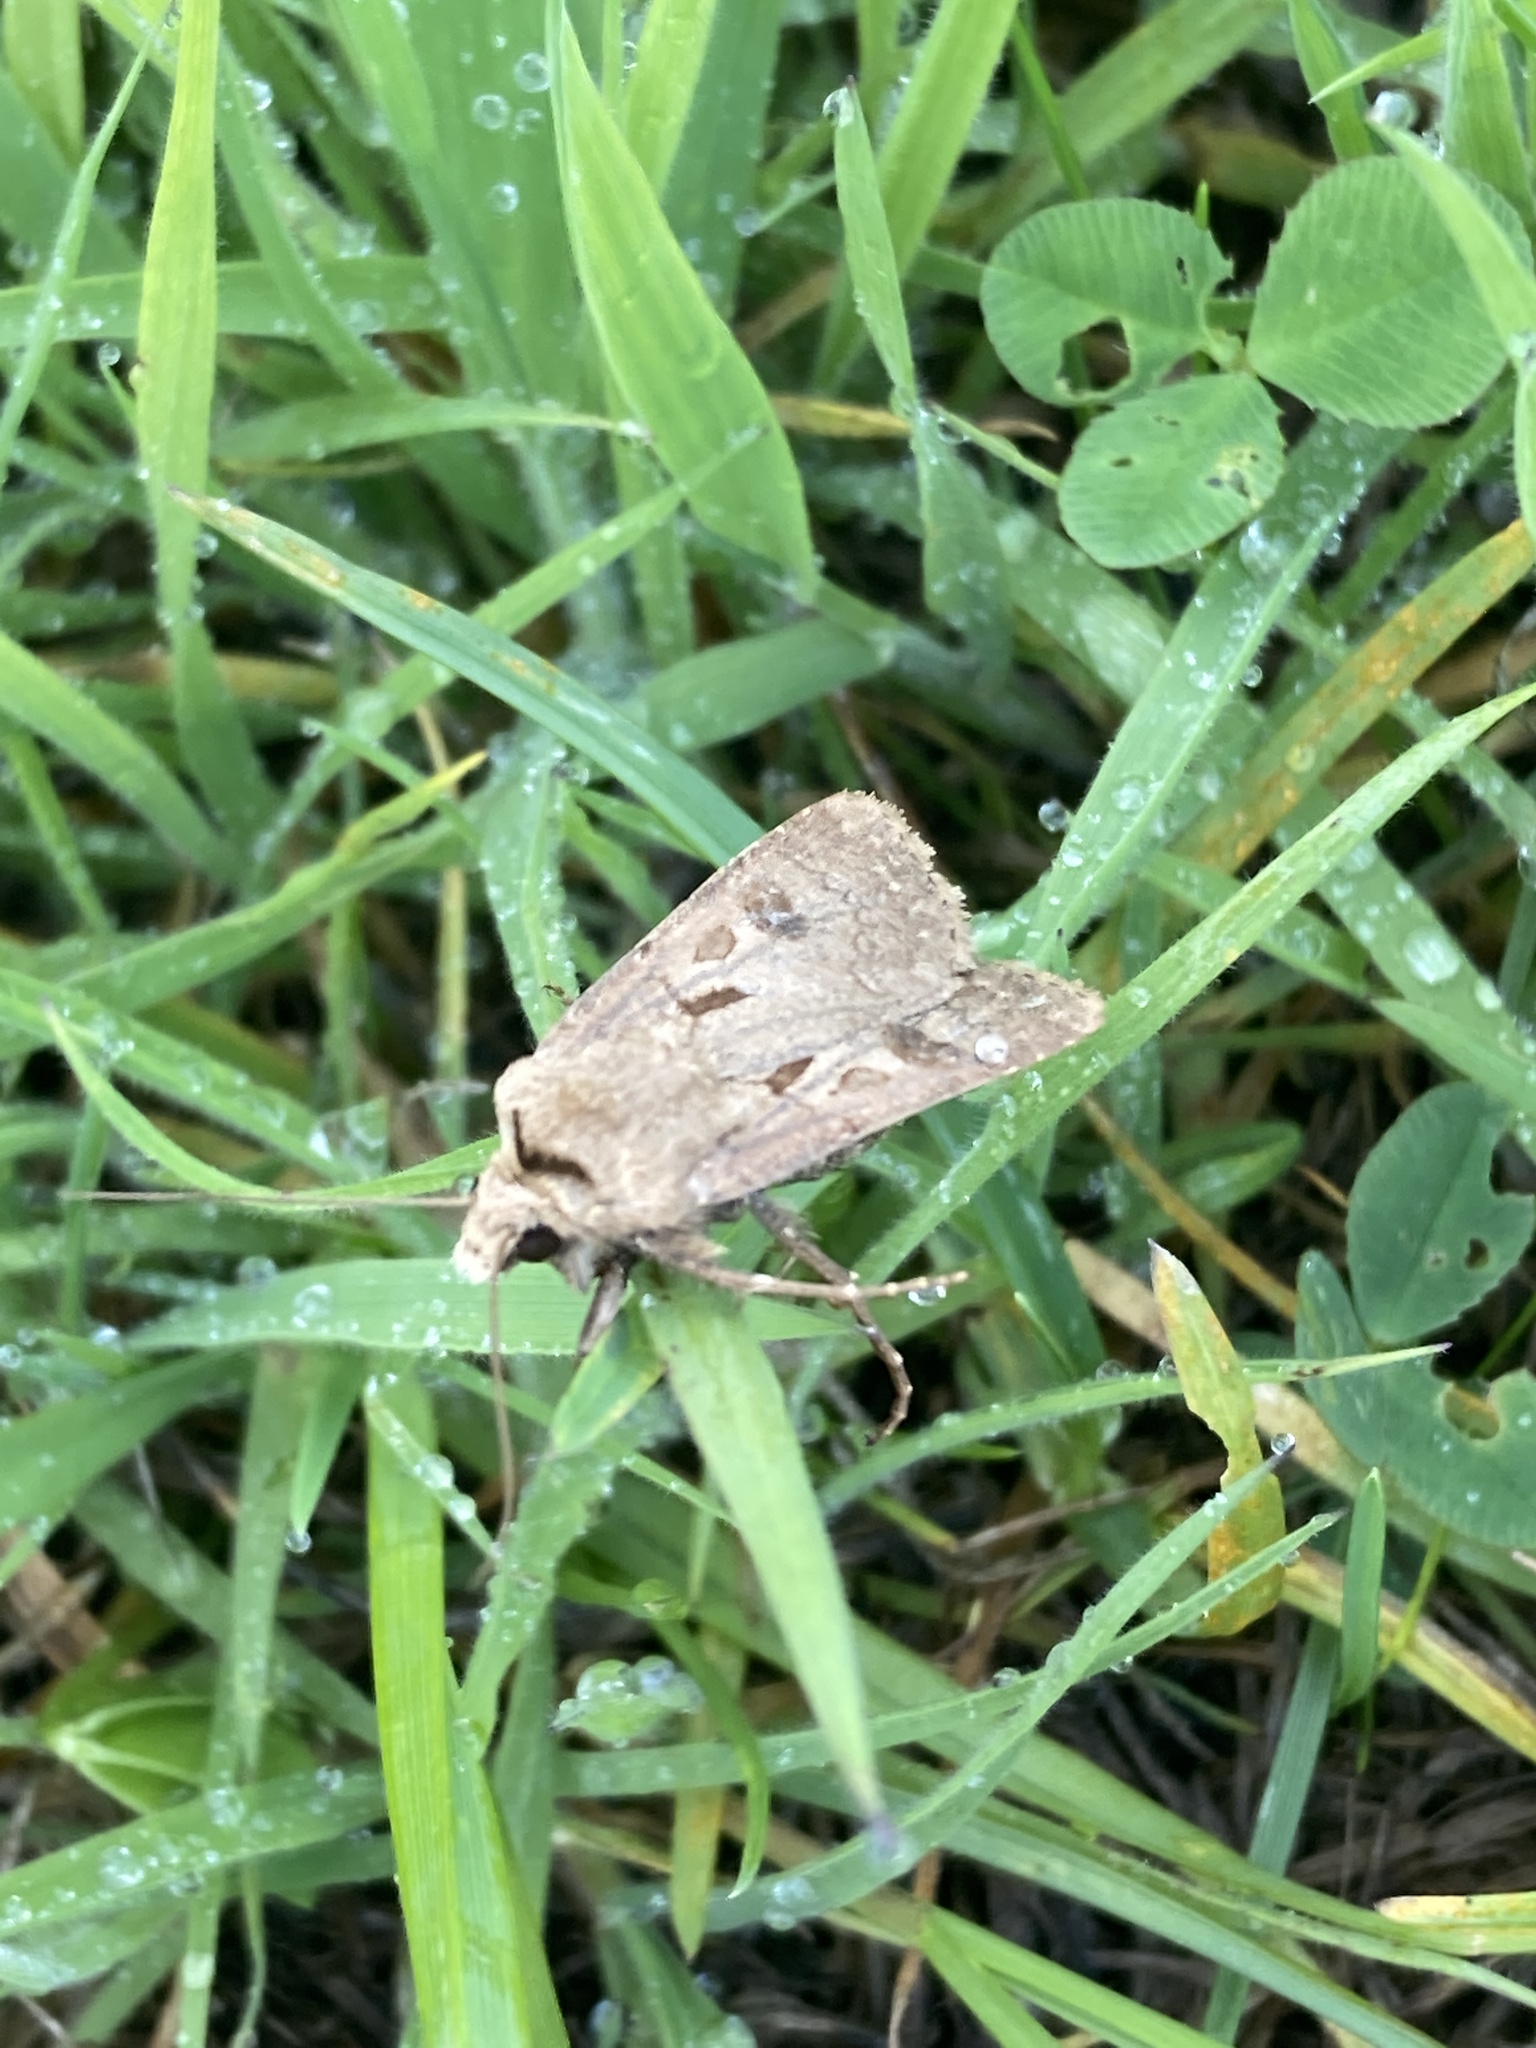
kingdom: Animalia
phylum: Arthropoda
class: Insecta
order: Lepidoptera
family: Noctuidae
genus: Agrotis
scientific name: Agrotis exclamationis
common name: Heart and dart
